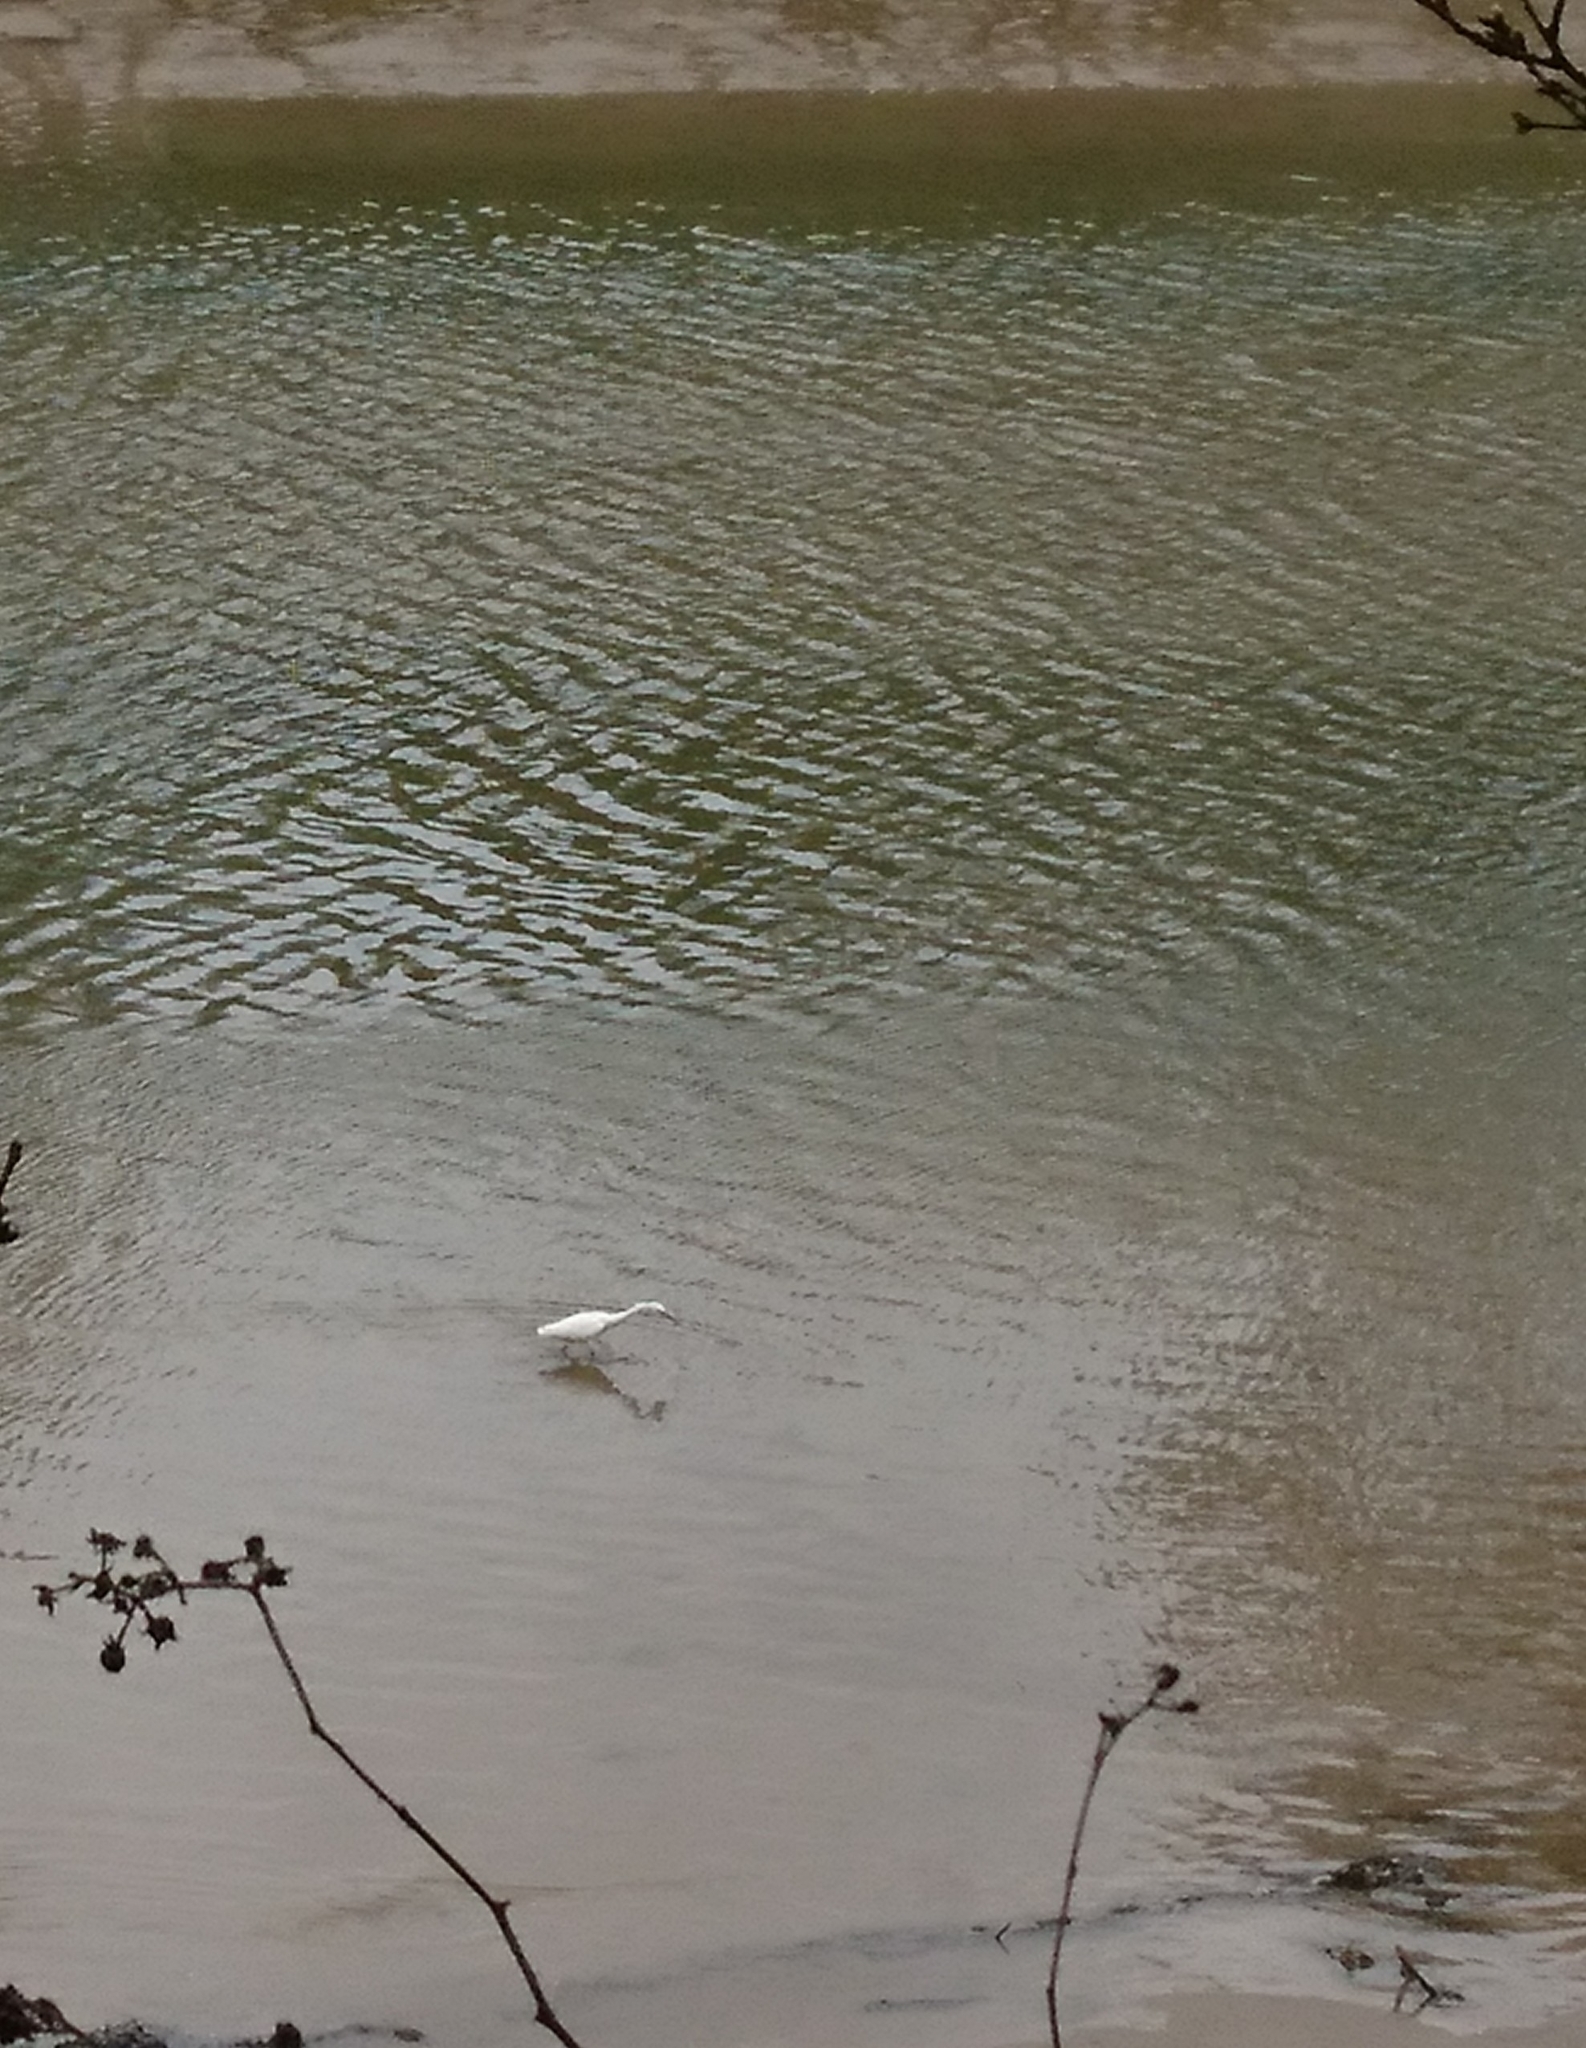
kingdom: Animalia
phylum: Chordata
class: Aves
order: Pelecaniformes
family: Ardeidae
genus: Egretta
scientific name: Egretta garzetta
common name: Little egret
